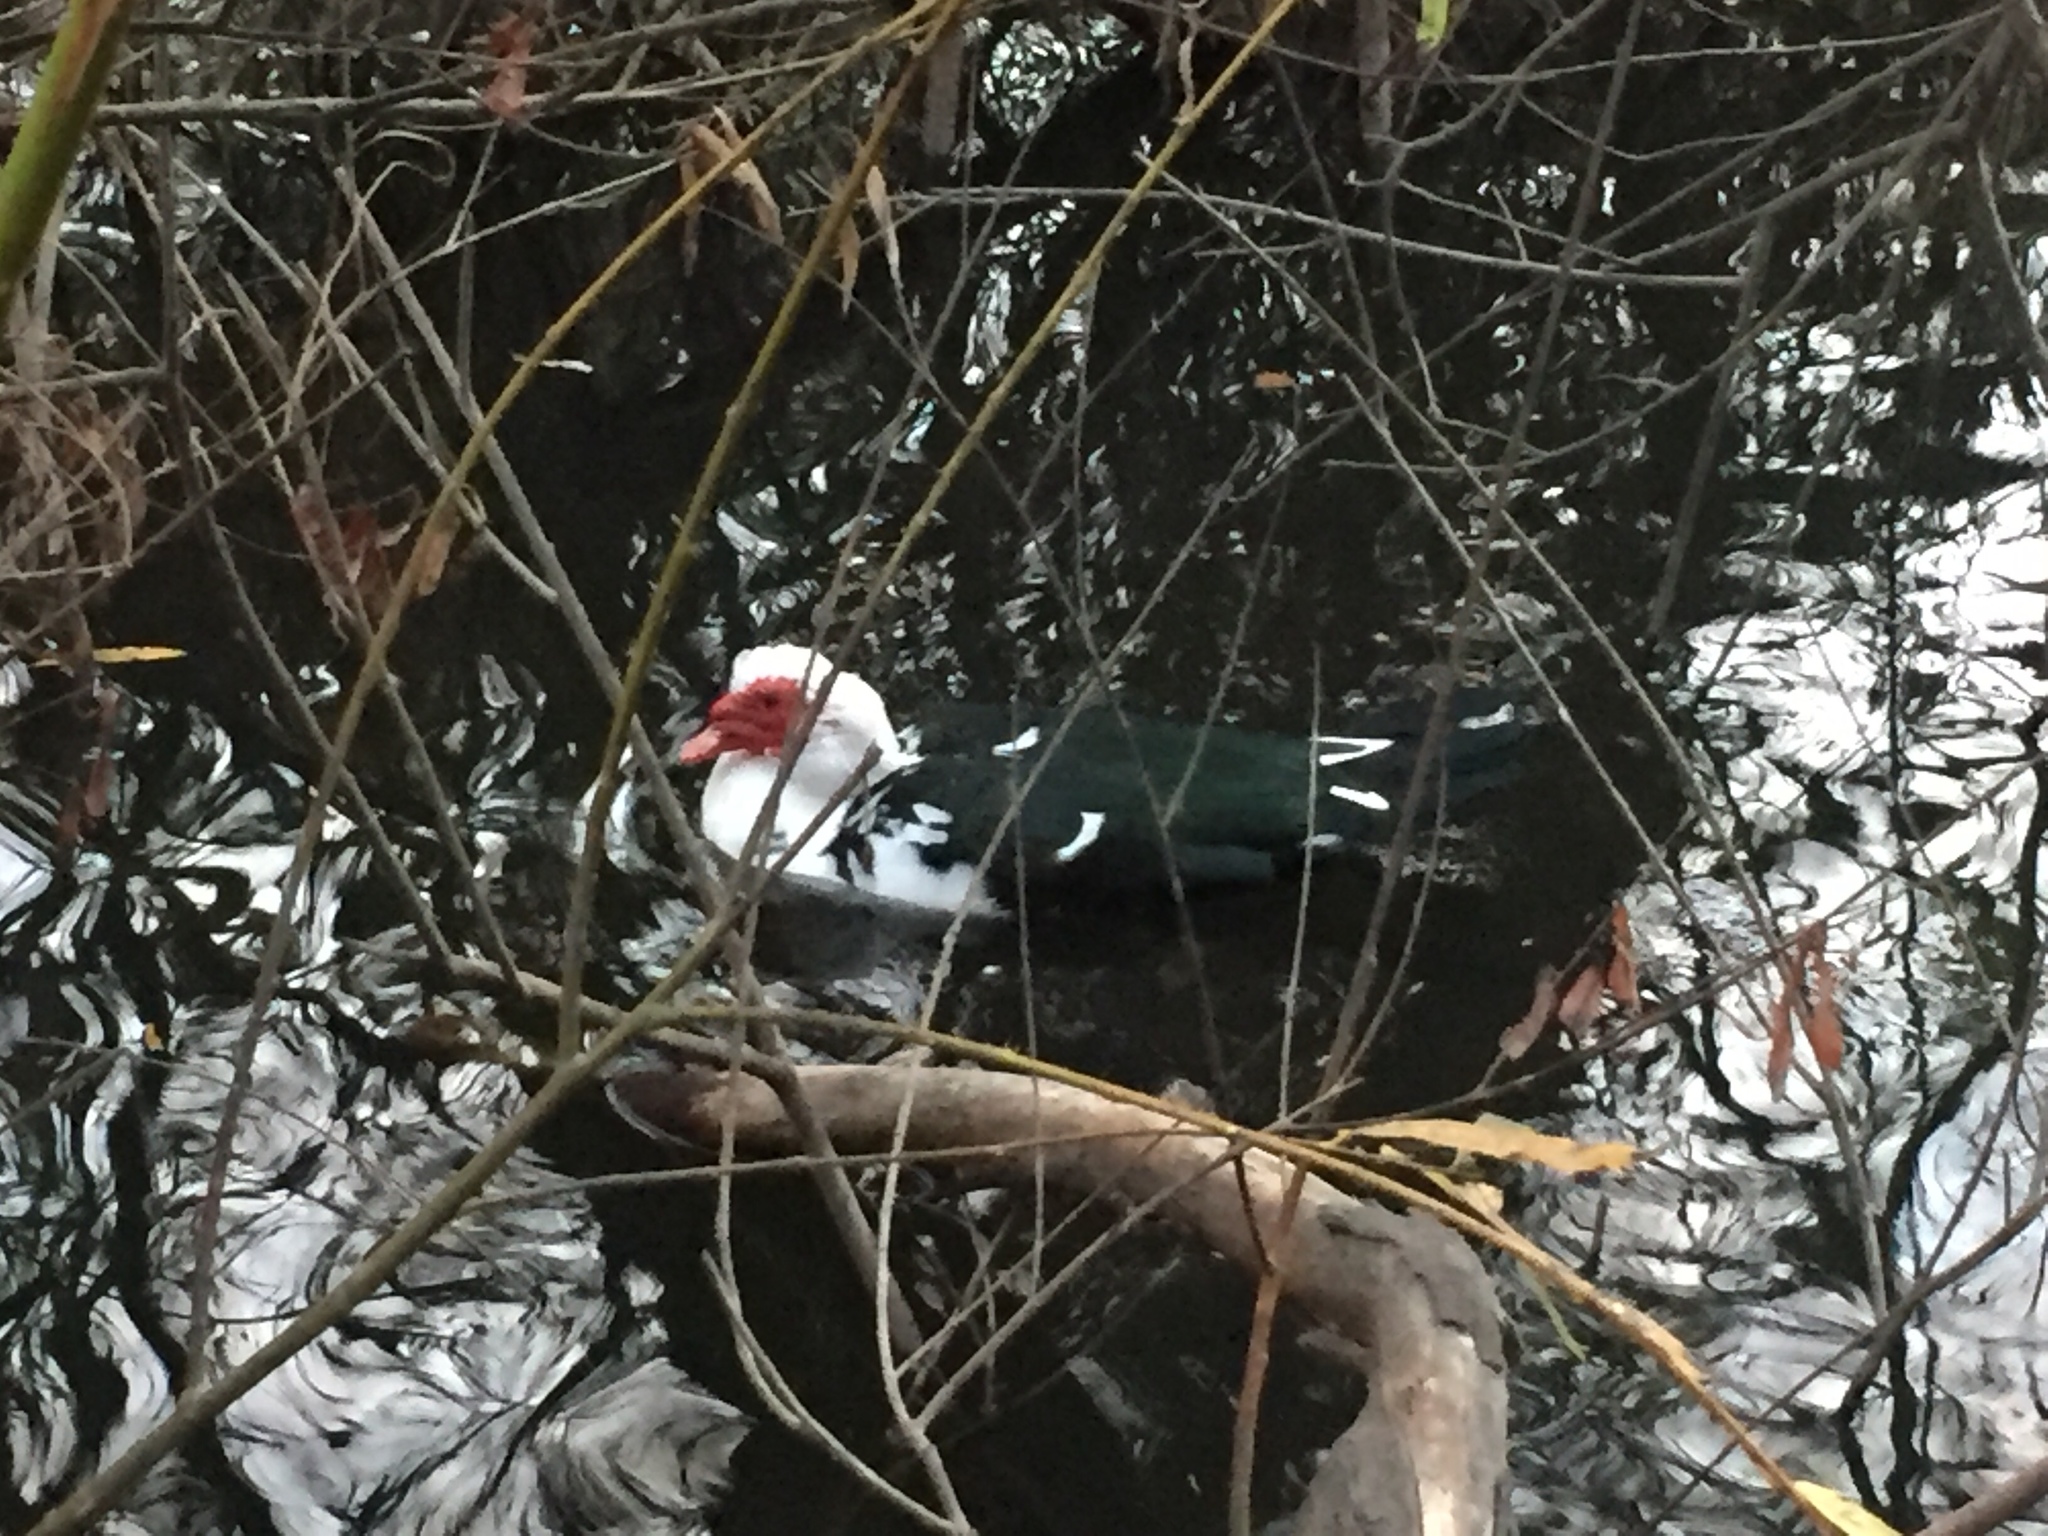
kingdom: Animalia
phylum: Chordata
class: Aves
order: Anseriformes
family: Anatidae
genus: Cairina
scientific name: Cairina moschata
